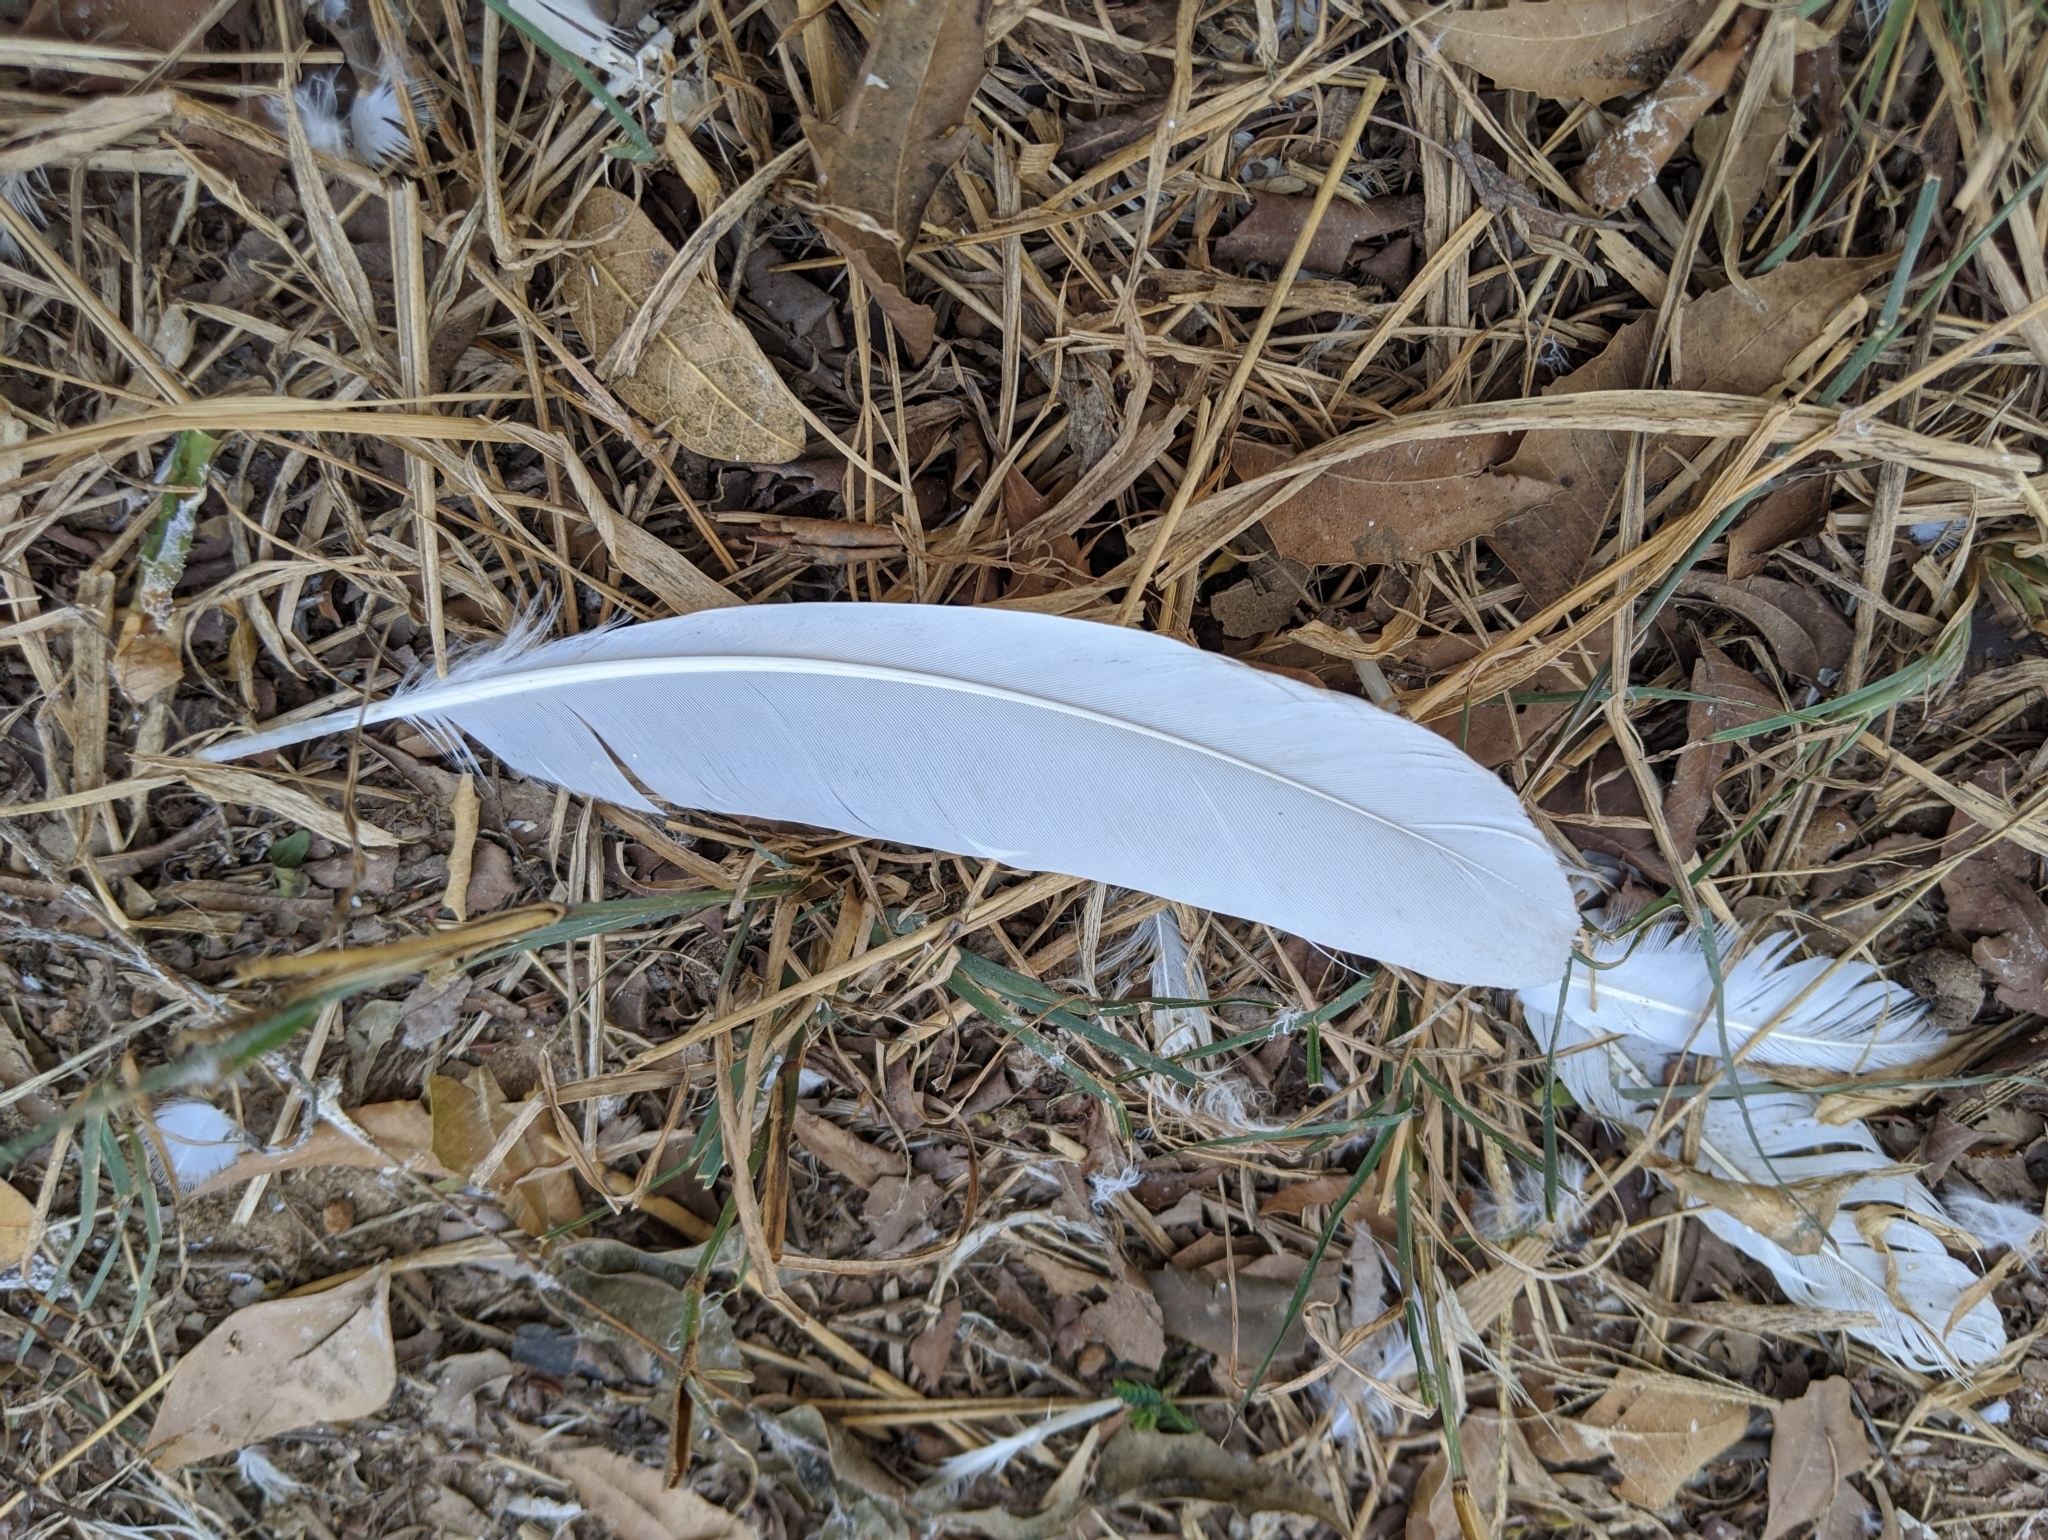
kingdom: Animalia
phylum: Chordata
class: Aves
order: Pelecaniformes
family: Ardeidae
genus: Bubulcus
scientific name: Bubulcus ibis
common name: Cattle egret
